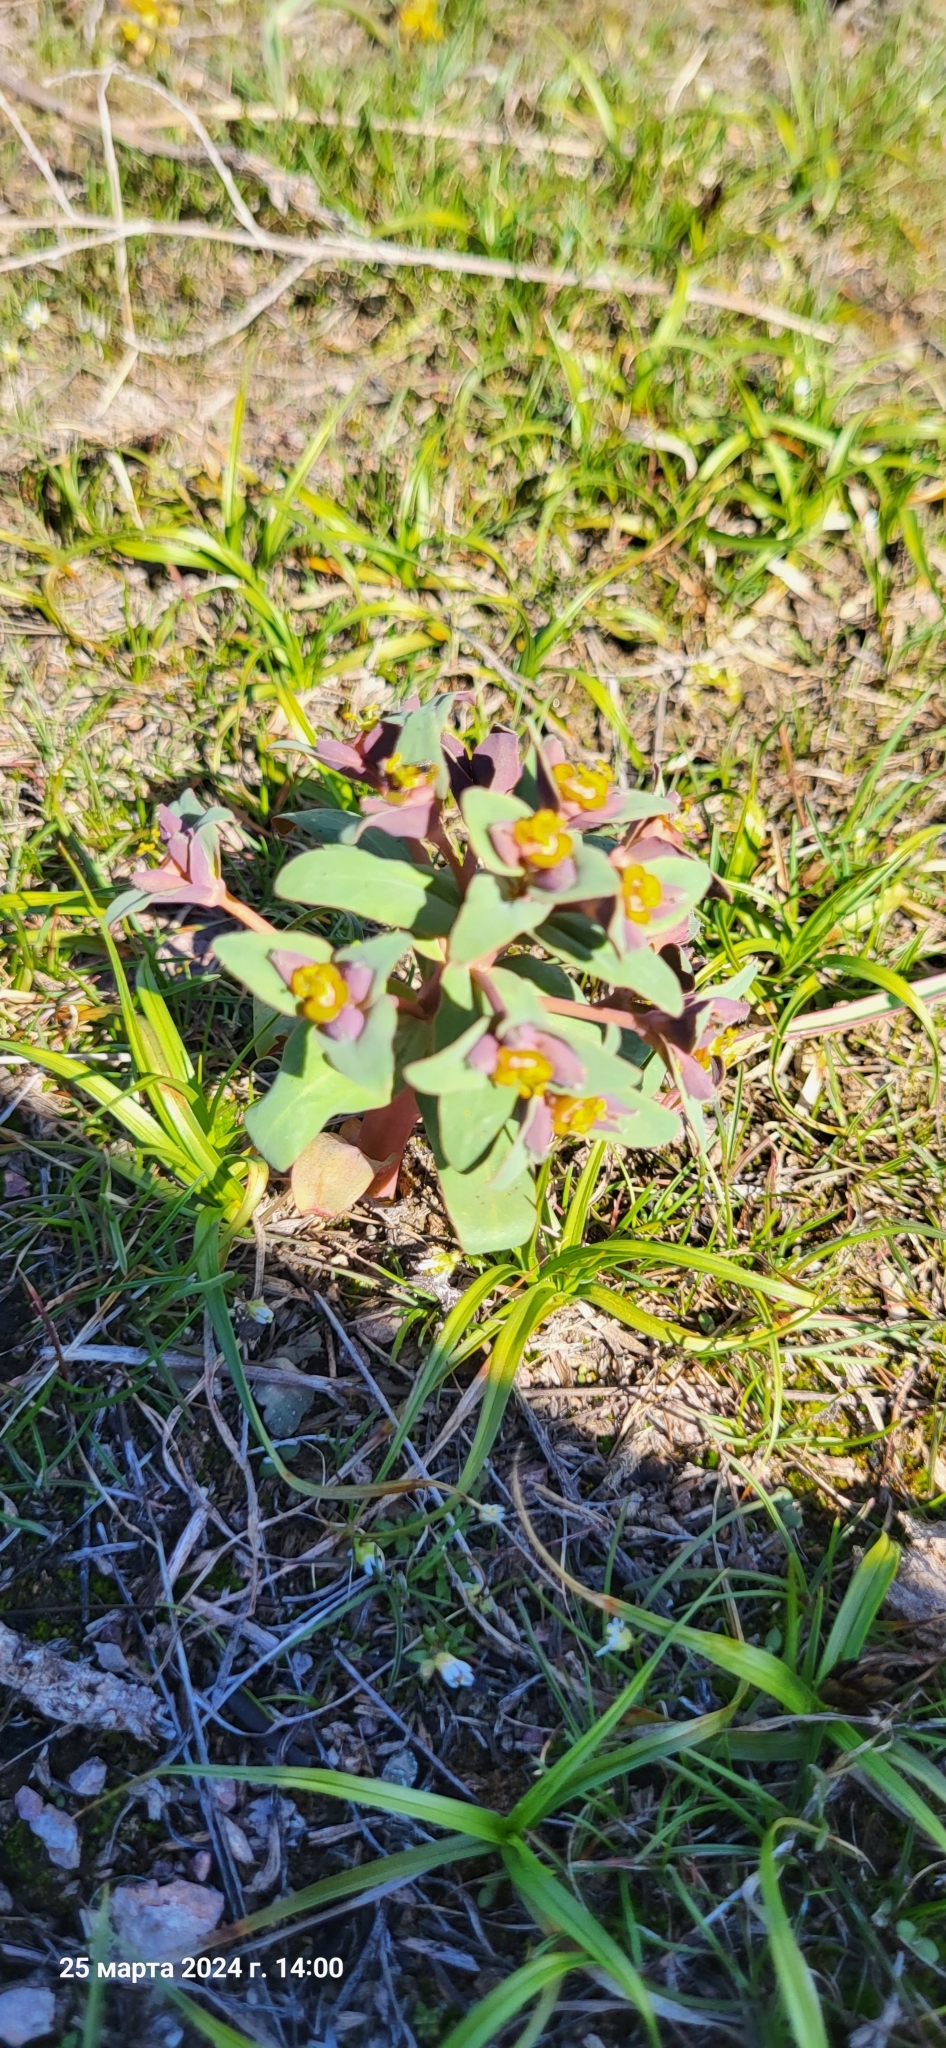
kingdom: Plantae
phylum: Tracheophyta
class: Magnoliopsida
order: Malpighiales
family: Euphorbiaceae
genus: Euphorbia
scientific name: Euphorbia rapulum
